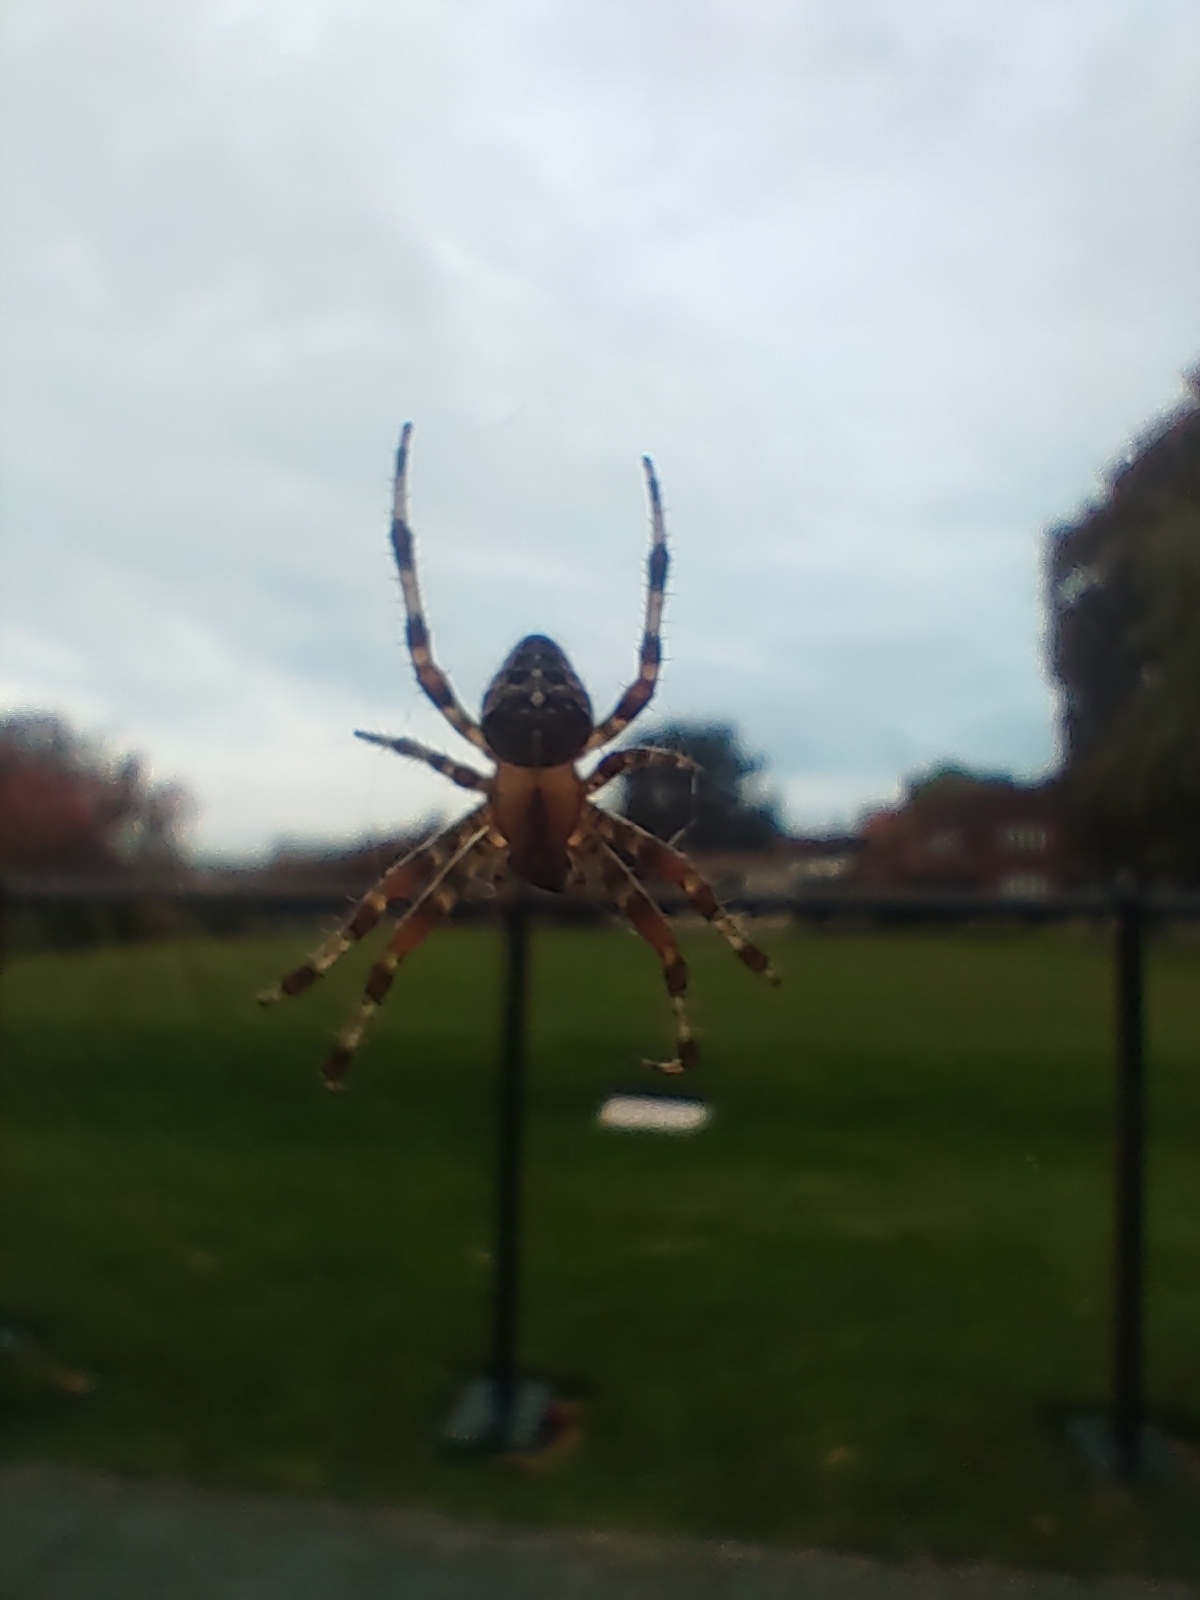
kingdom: Animalia
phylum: Arthropoda
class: Arachnida
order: Araneae
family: Araneidae
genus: Araneus
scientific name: Araneus diadematus
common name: Cross orbweaver
